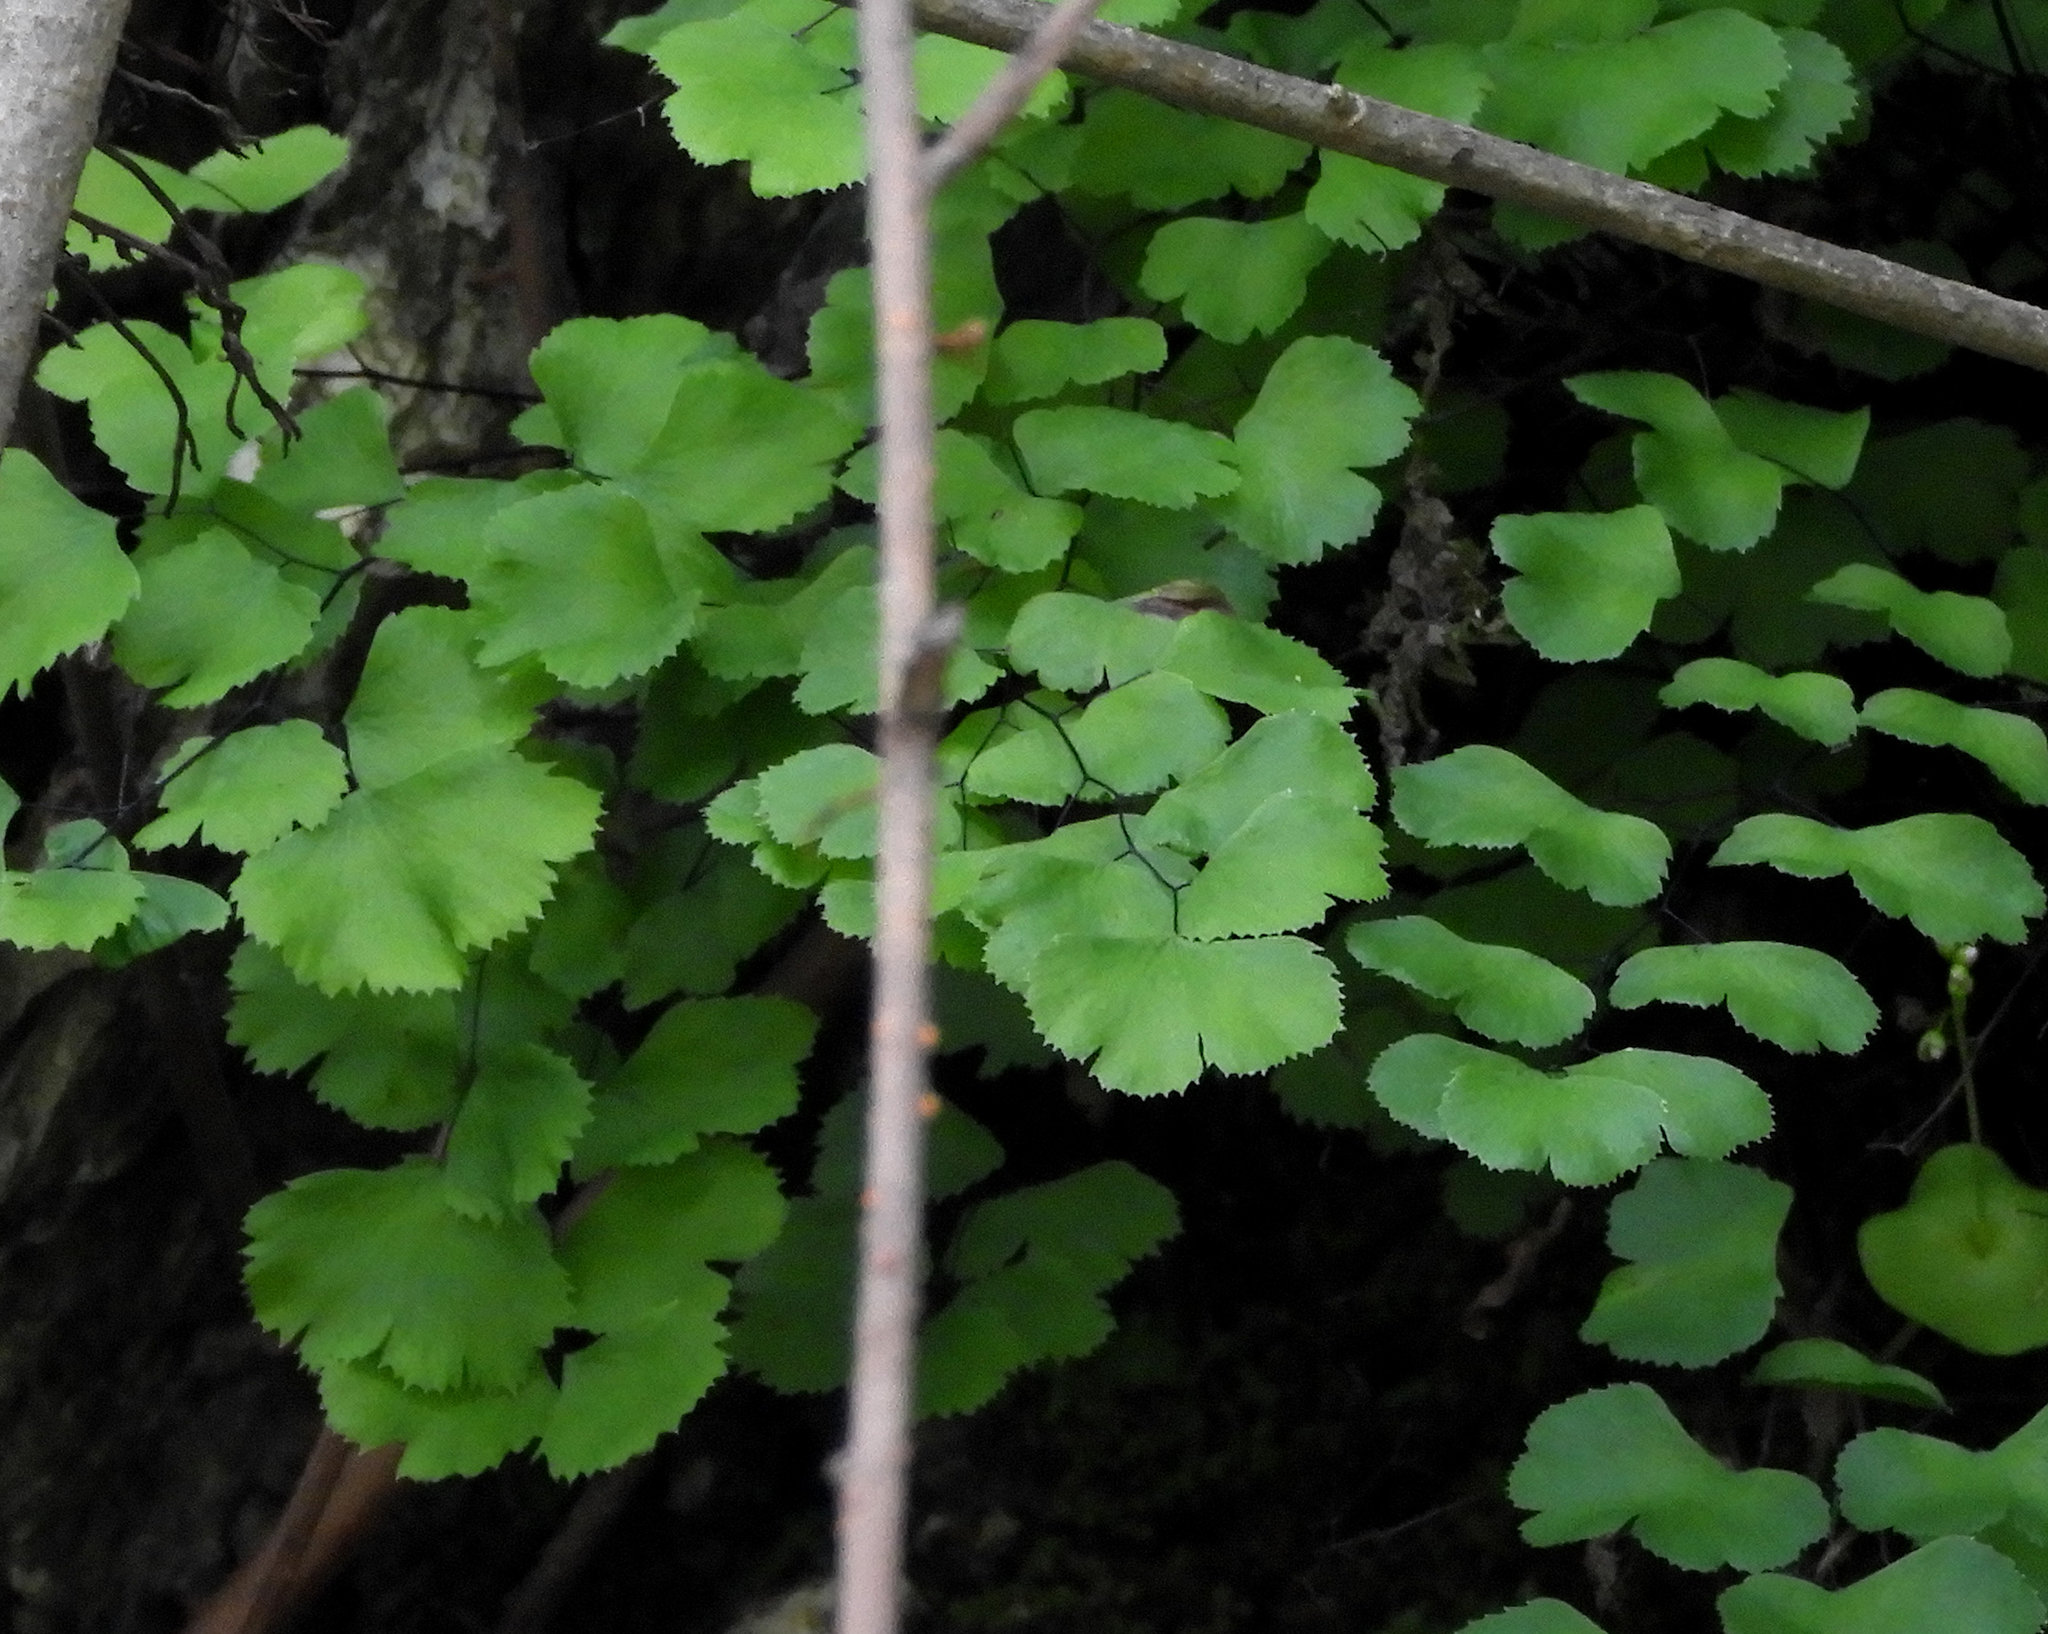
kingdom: Plantae
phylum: Tracheophyta
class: Polypodiopsida
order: Polypodiales
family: Pteridaceae
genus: Adiantum
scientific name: Adiantum jordanii
